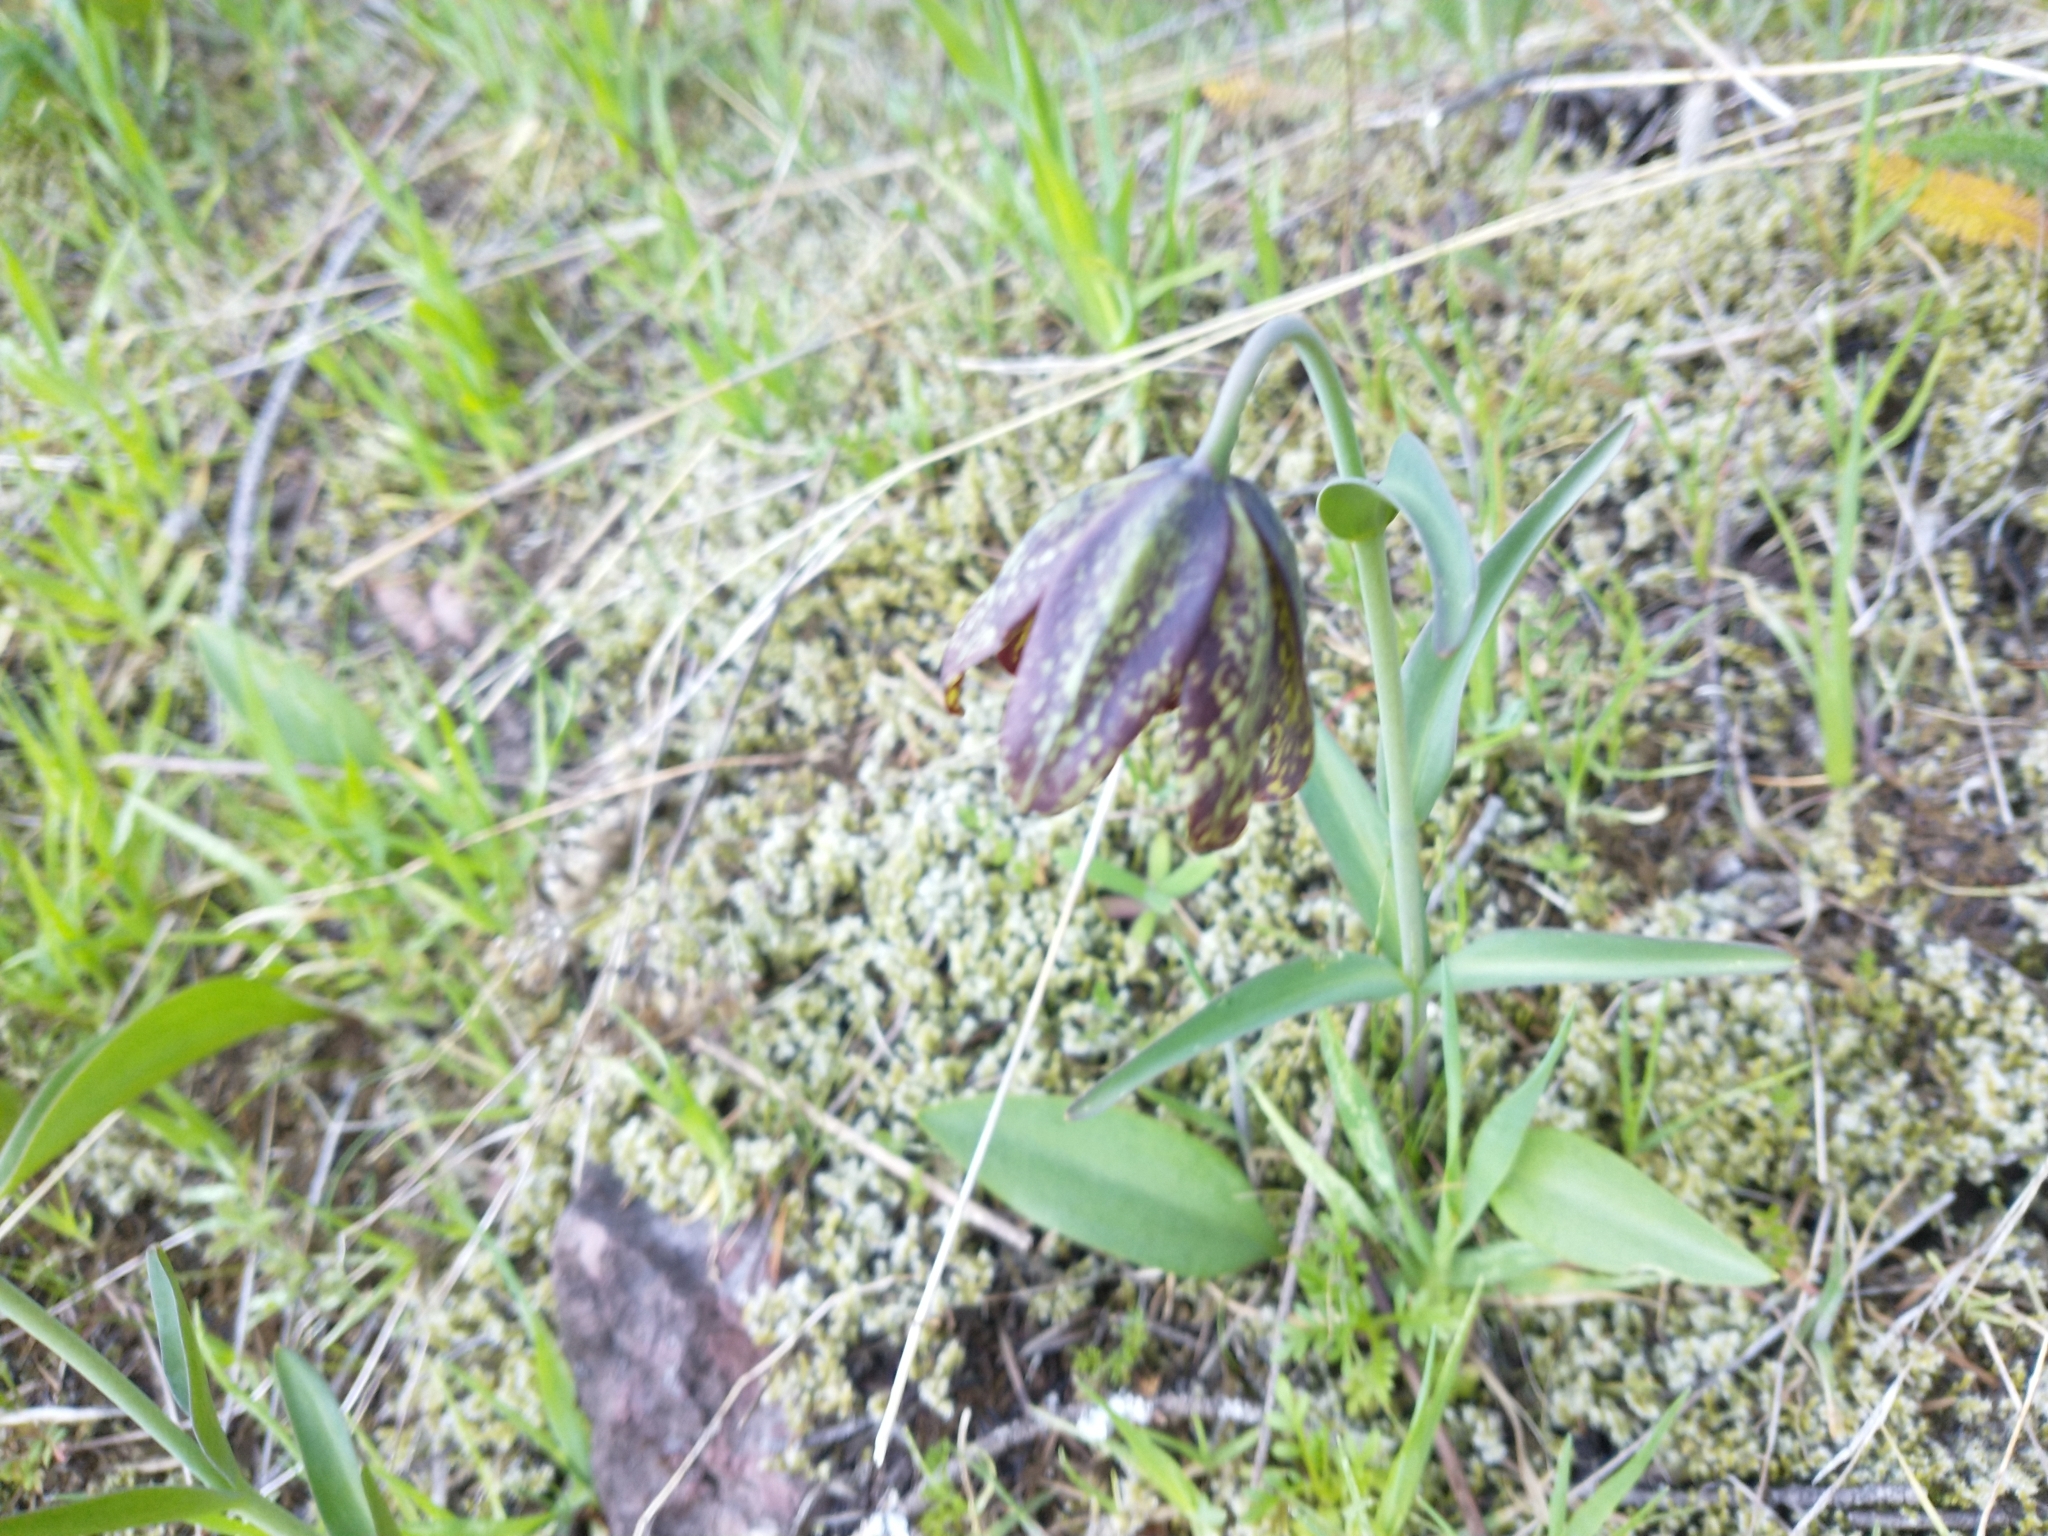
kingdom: Plantae
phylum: Tracheophyta
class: Liliopsida
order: Liliales
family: Liliaceae
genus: Fritillaria
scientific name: Fritillaria affinis
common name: Ojai fritillary
